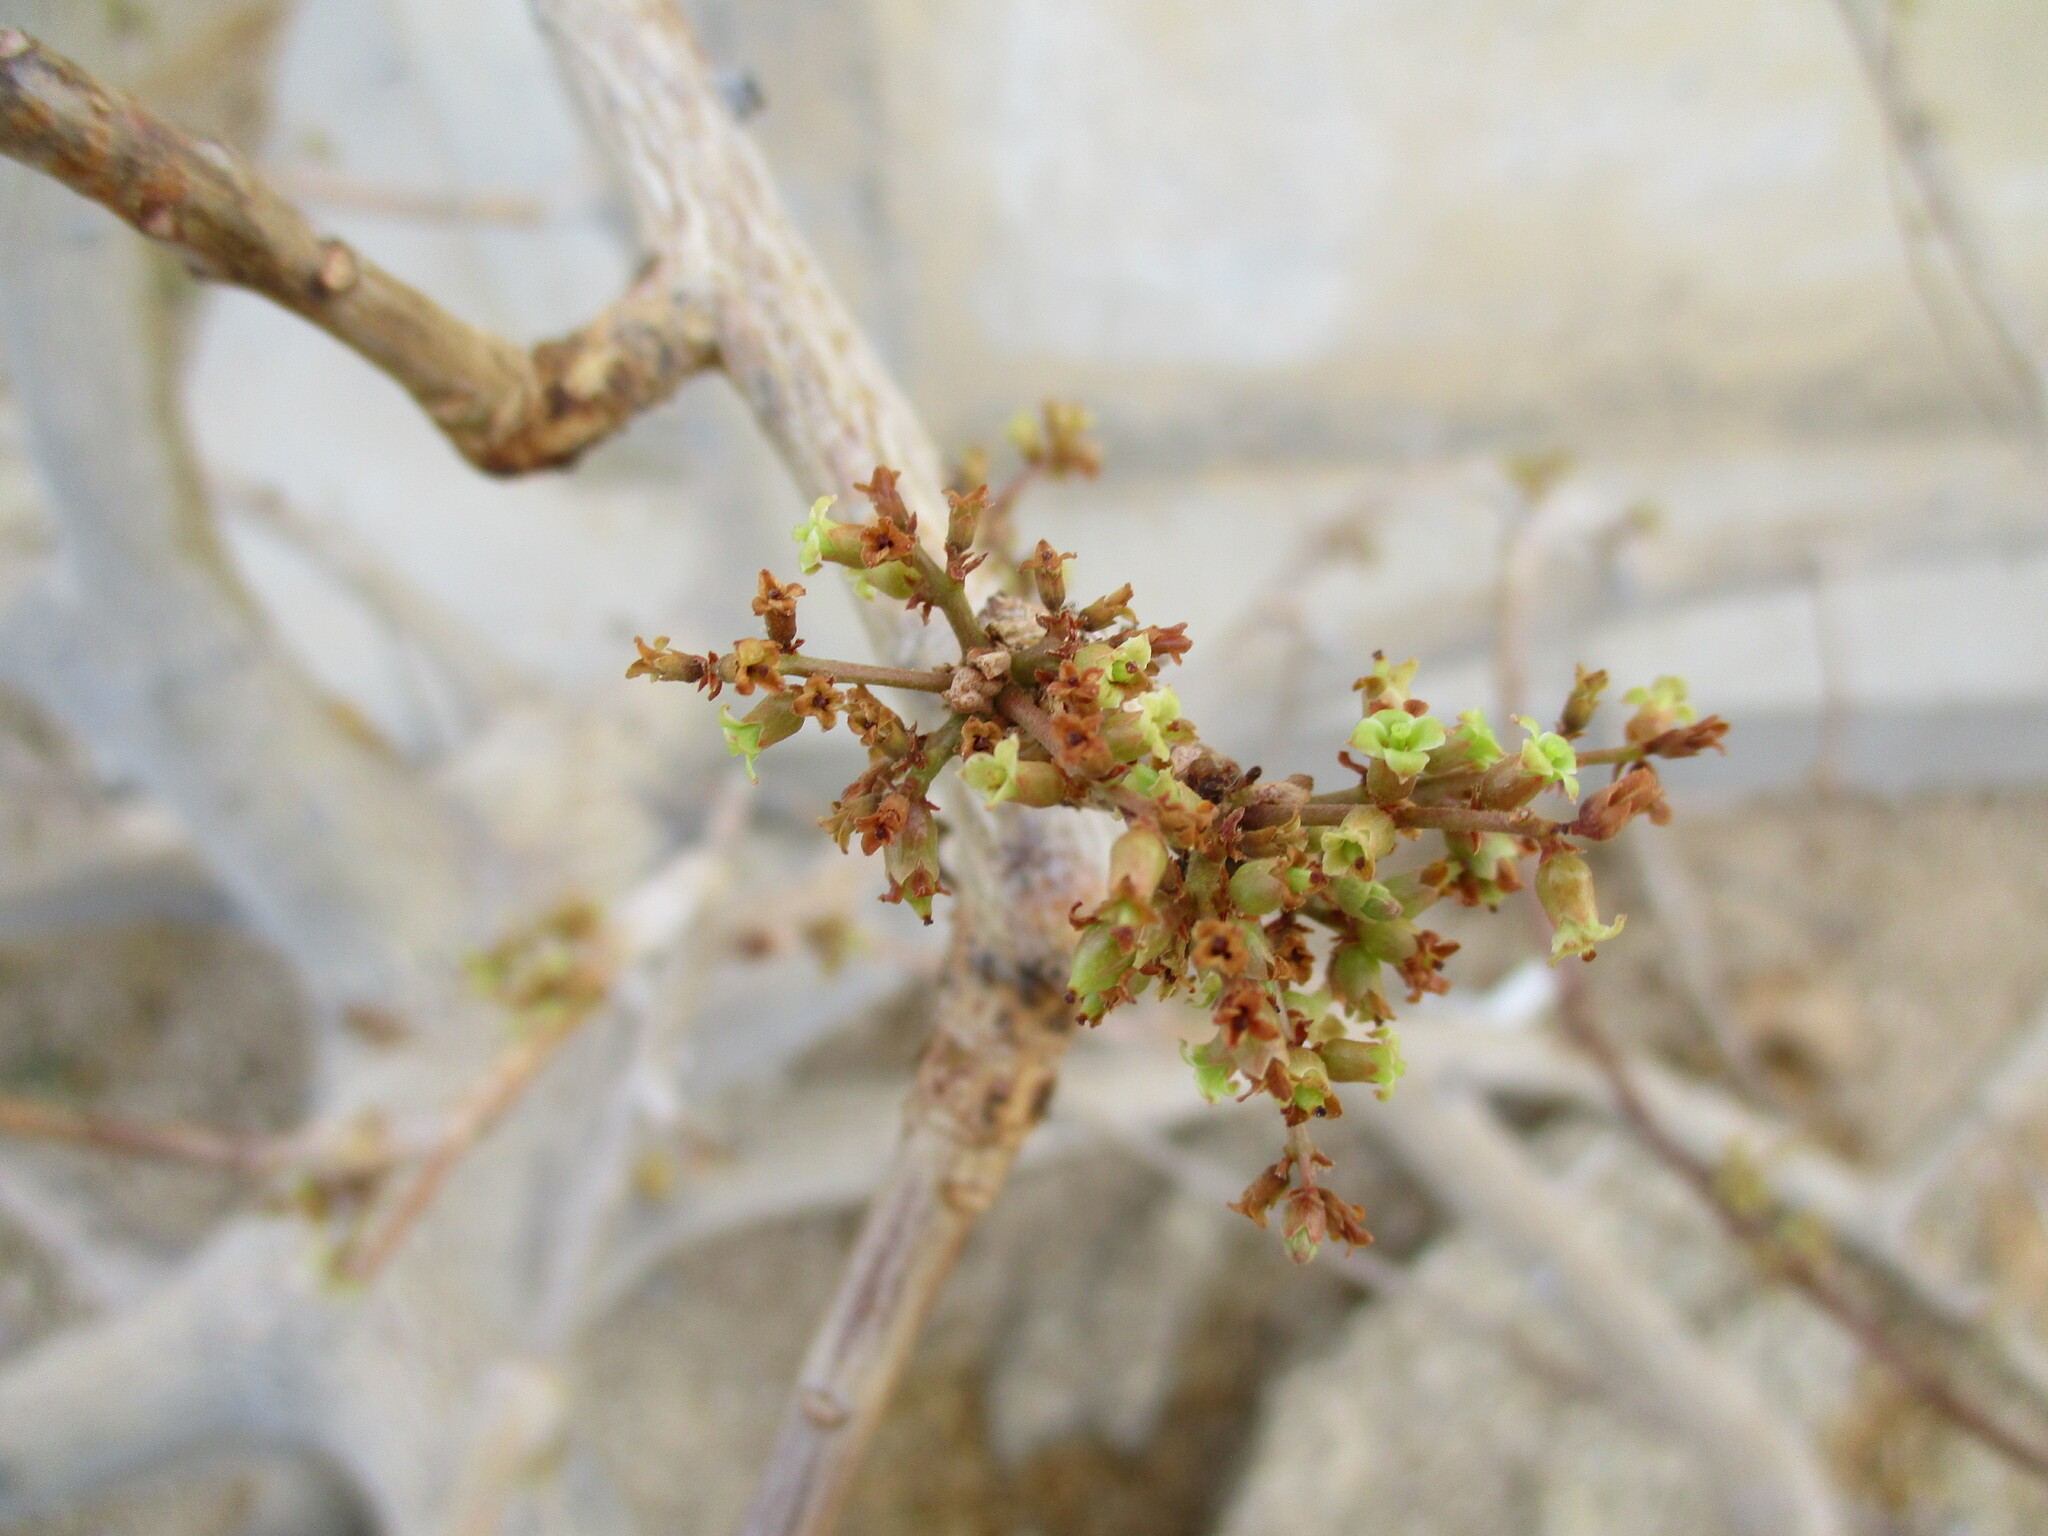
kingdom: Plantae
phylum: Tracheophyta
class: Magnoliopsida
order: Sapindales
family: Burseraceae
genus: Commiphora
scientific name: Commiphora saxicola
